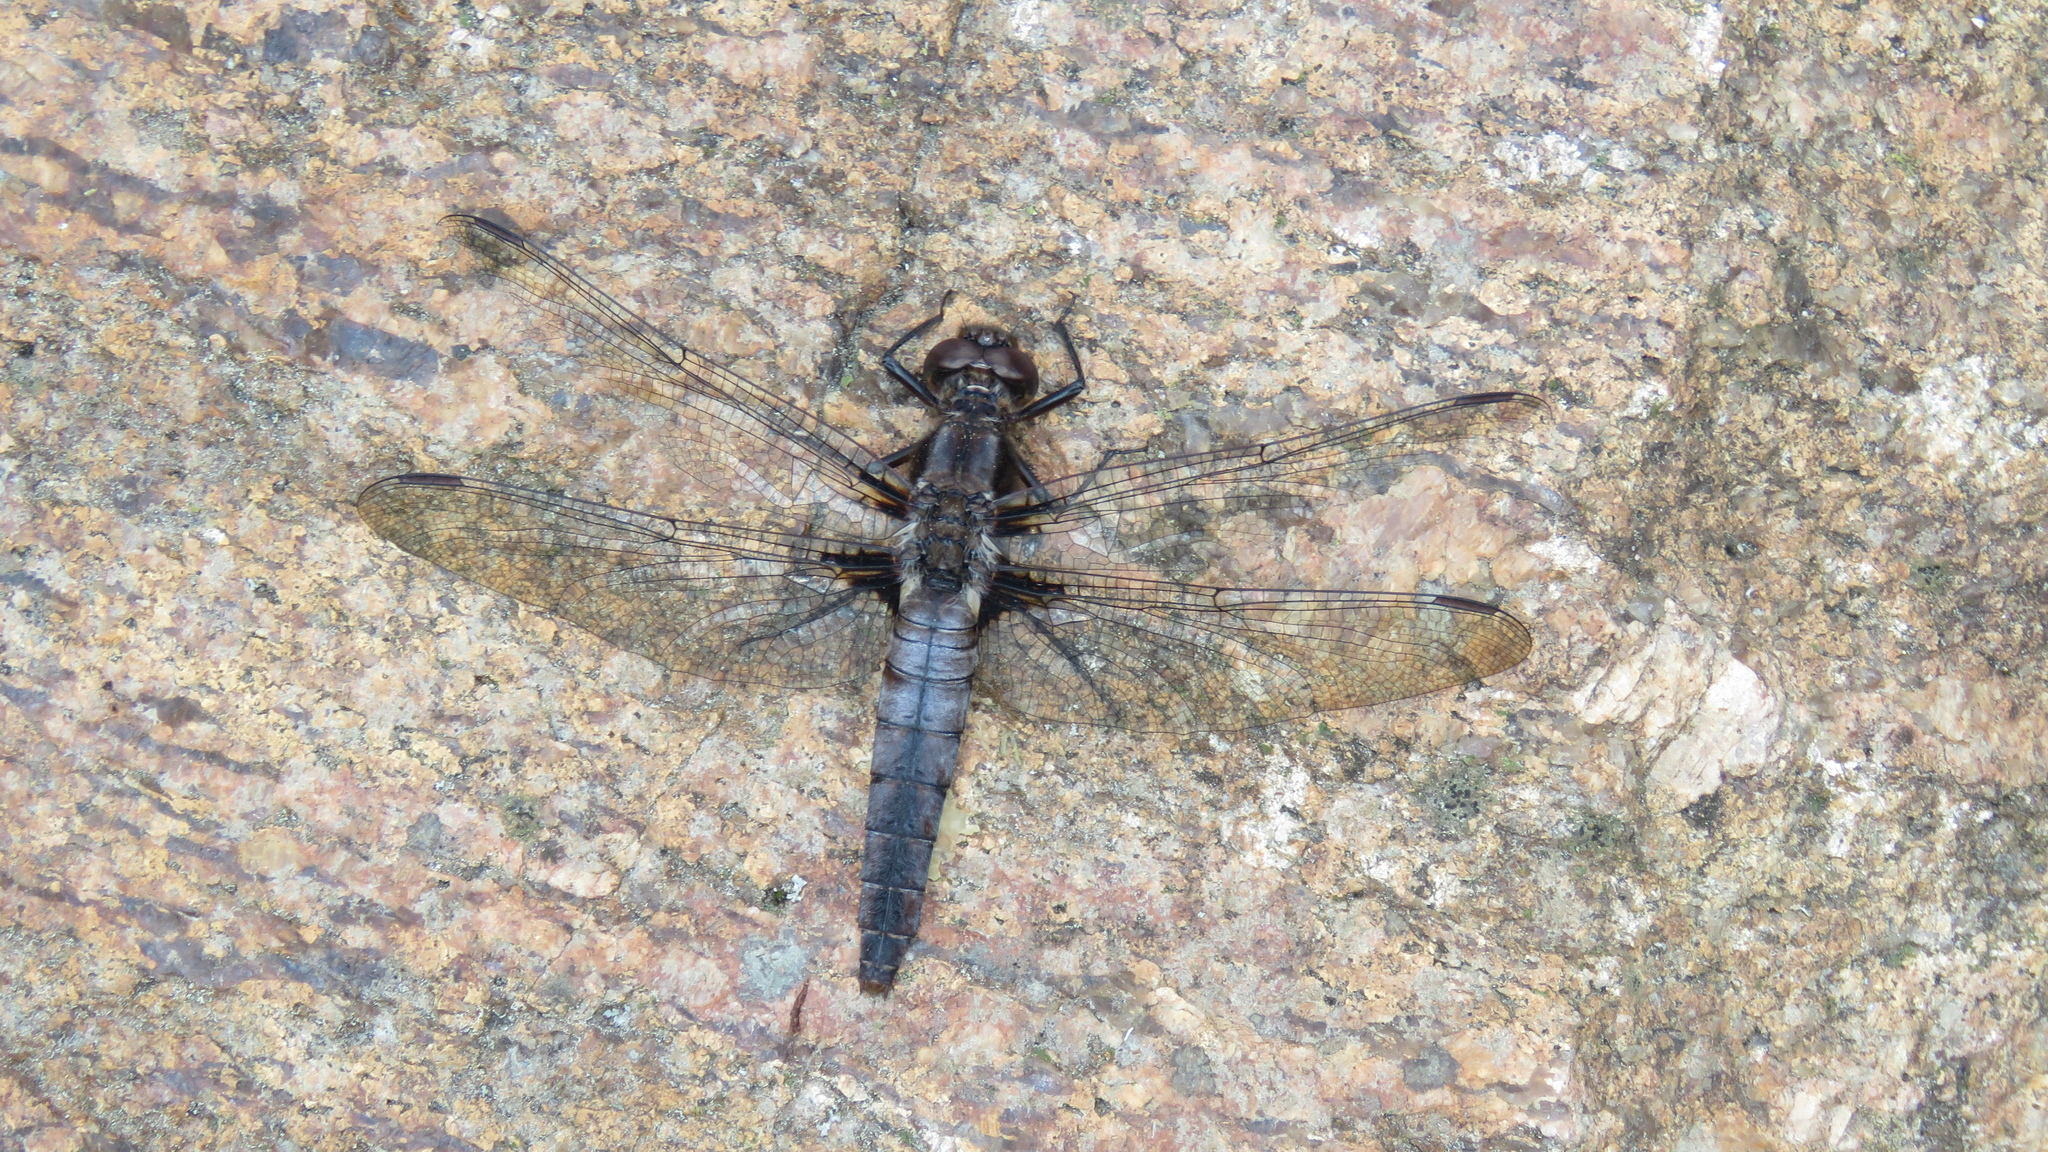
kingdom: Animalia
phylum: Arthropoda
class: Insecta
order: Odonata
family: Libellulidae
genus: Ladona
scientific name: Ladona julia
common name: Chalk-fronted corporal
